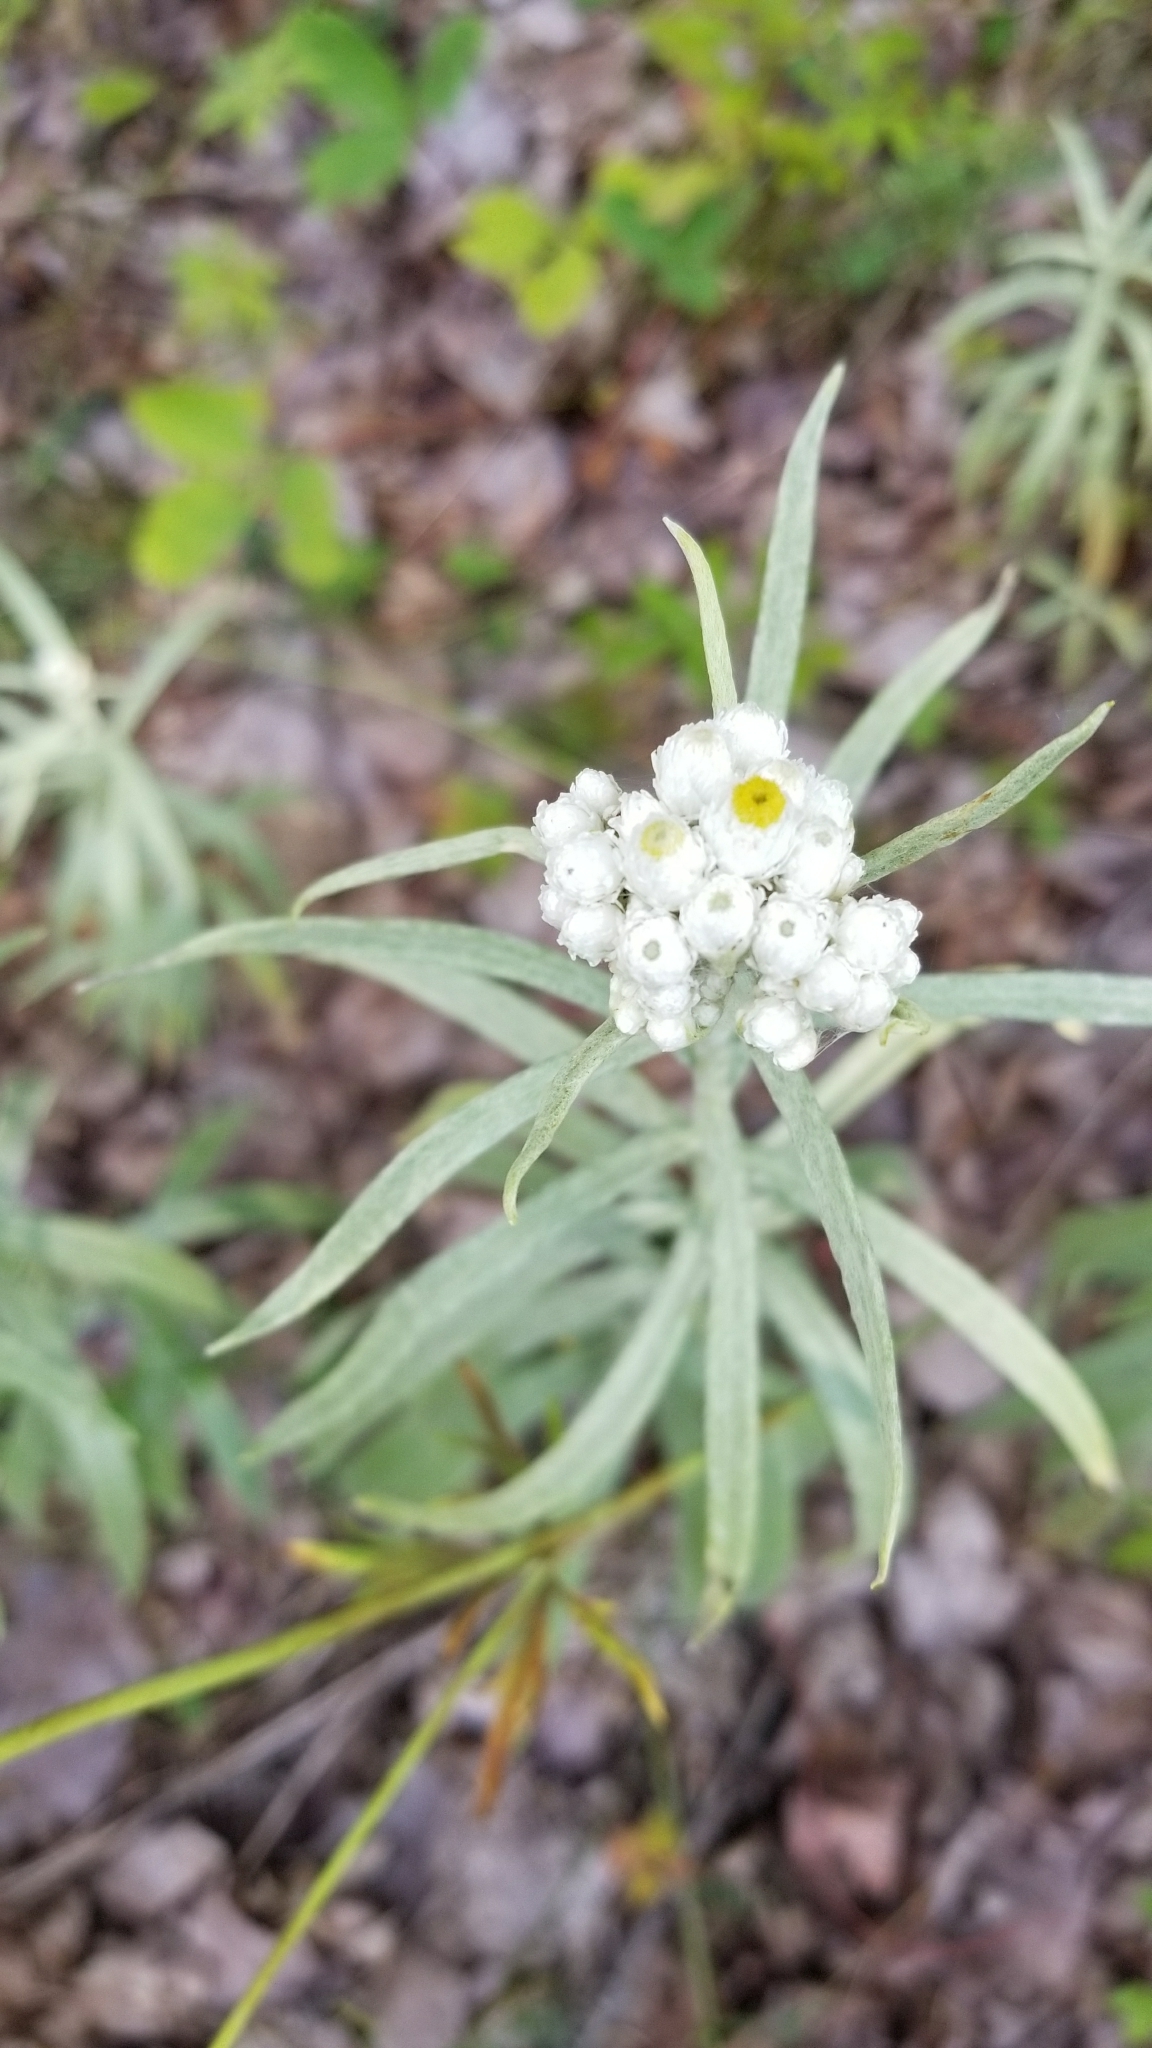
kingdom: Plantae
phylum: Tracheophyta
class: Magnoliopsida
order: Asterales
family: Asteraceae
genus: Anaphalis
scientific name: Anaphalis margaritacea
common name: Pearly everlasting
